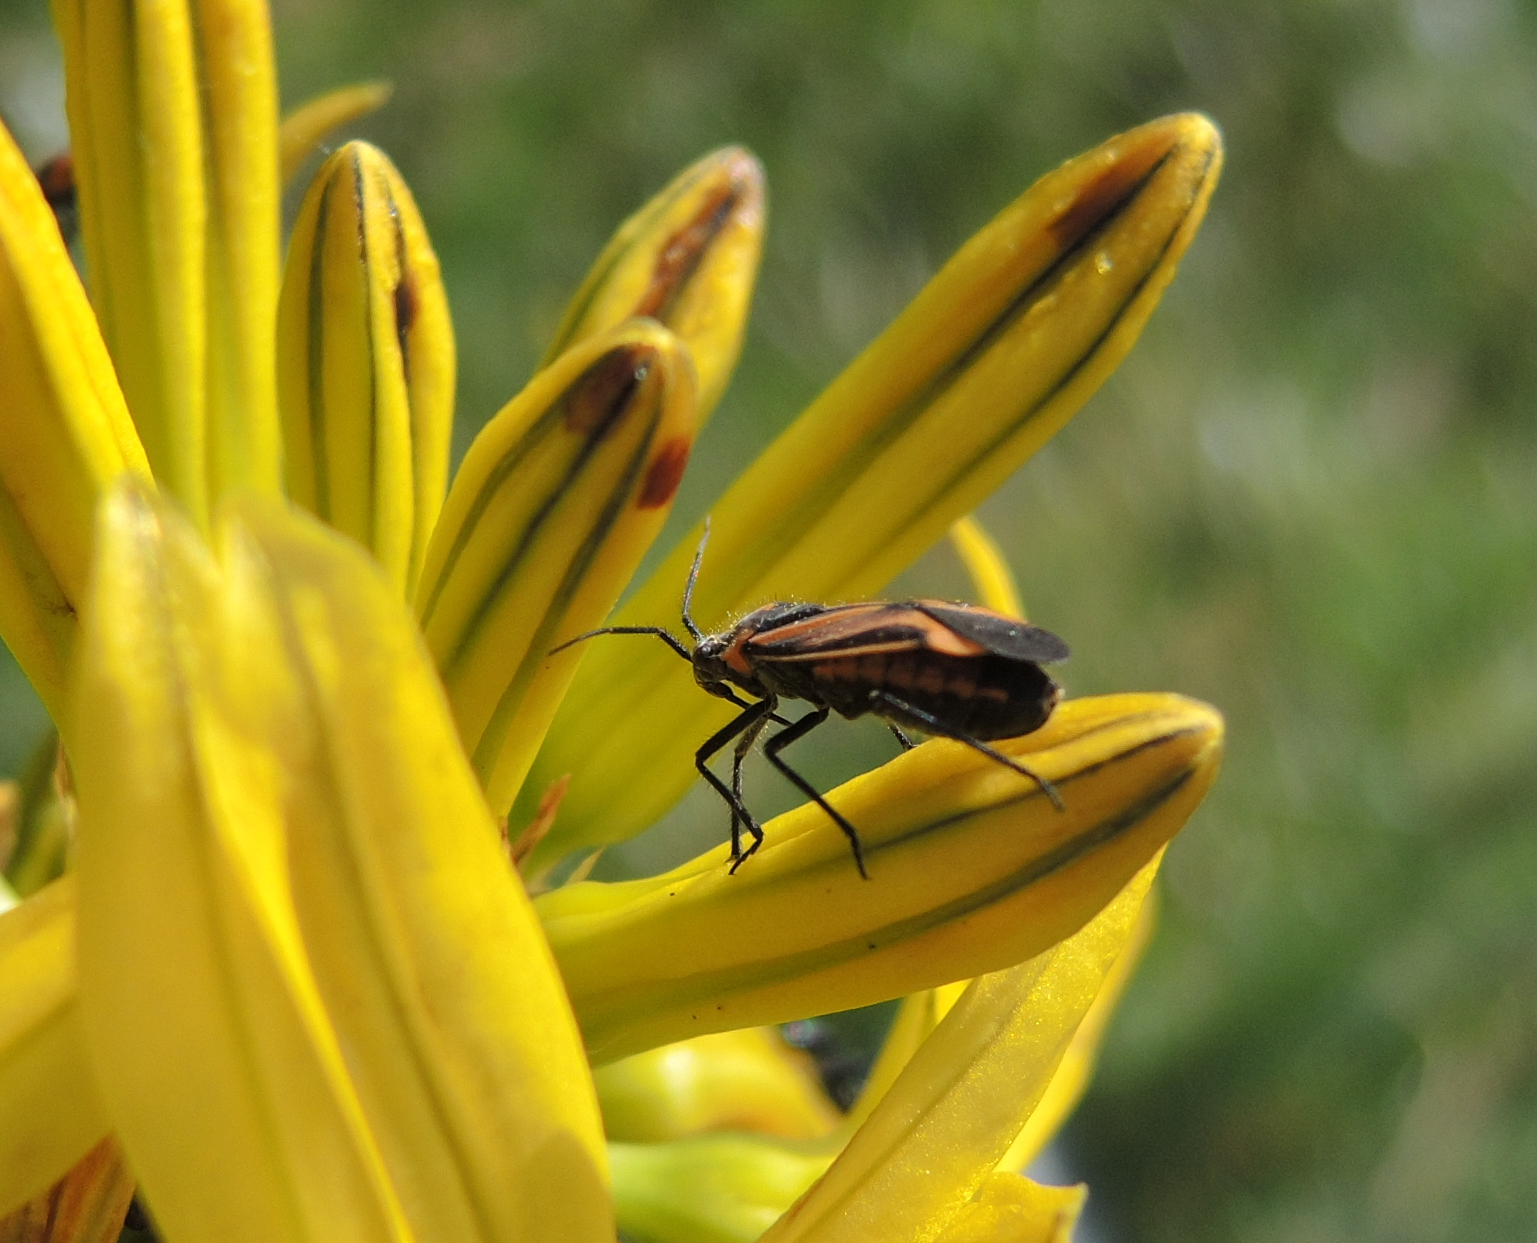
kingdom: Animalia
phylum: Arthropoda
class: Insecta
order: Hemiptera
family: Miridae
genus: Horistus
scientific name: Horistus infuscatus
